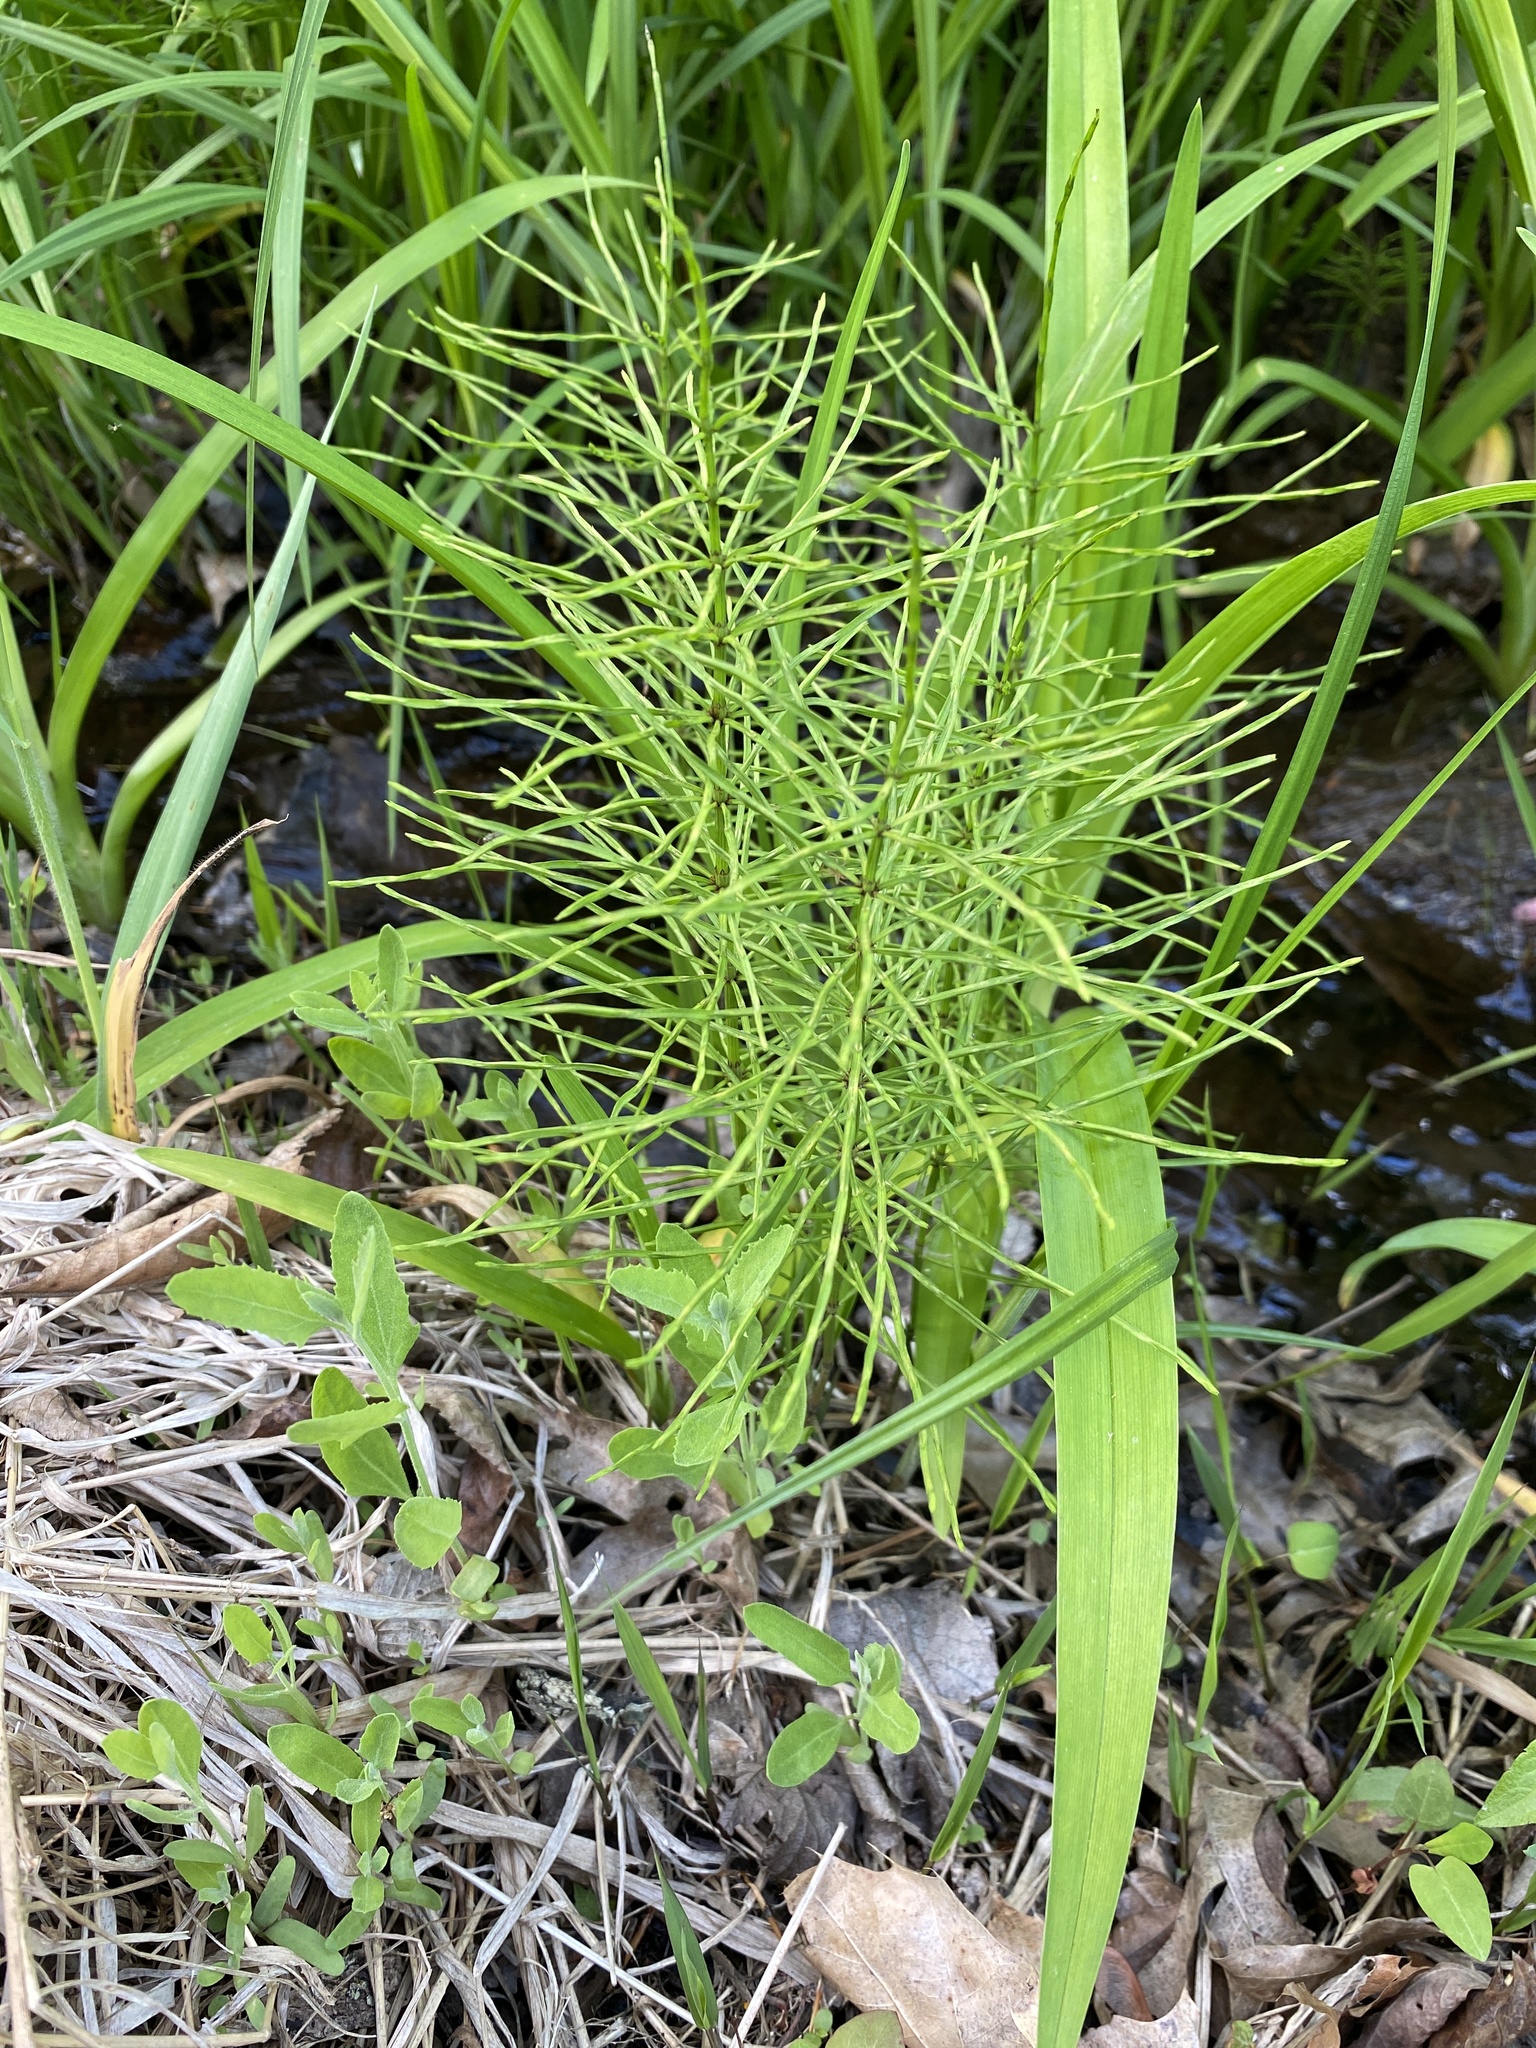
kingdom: Plantae
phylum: Tracheophyta
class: Polypodiopsida
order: Equisetales
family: Equisetaceae
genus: Equisetum
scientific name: Equisetum arvense
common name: Field horsetail
